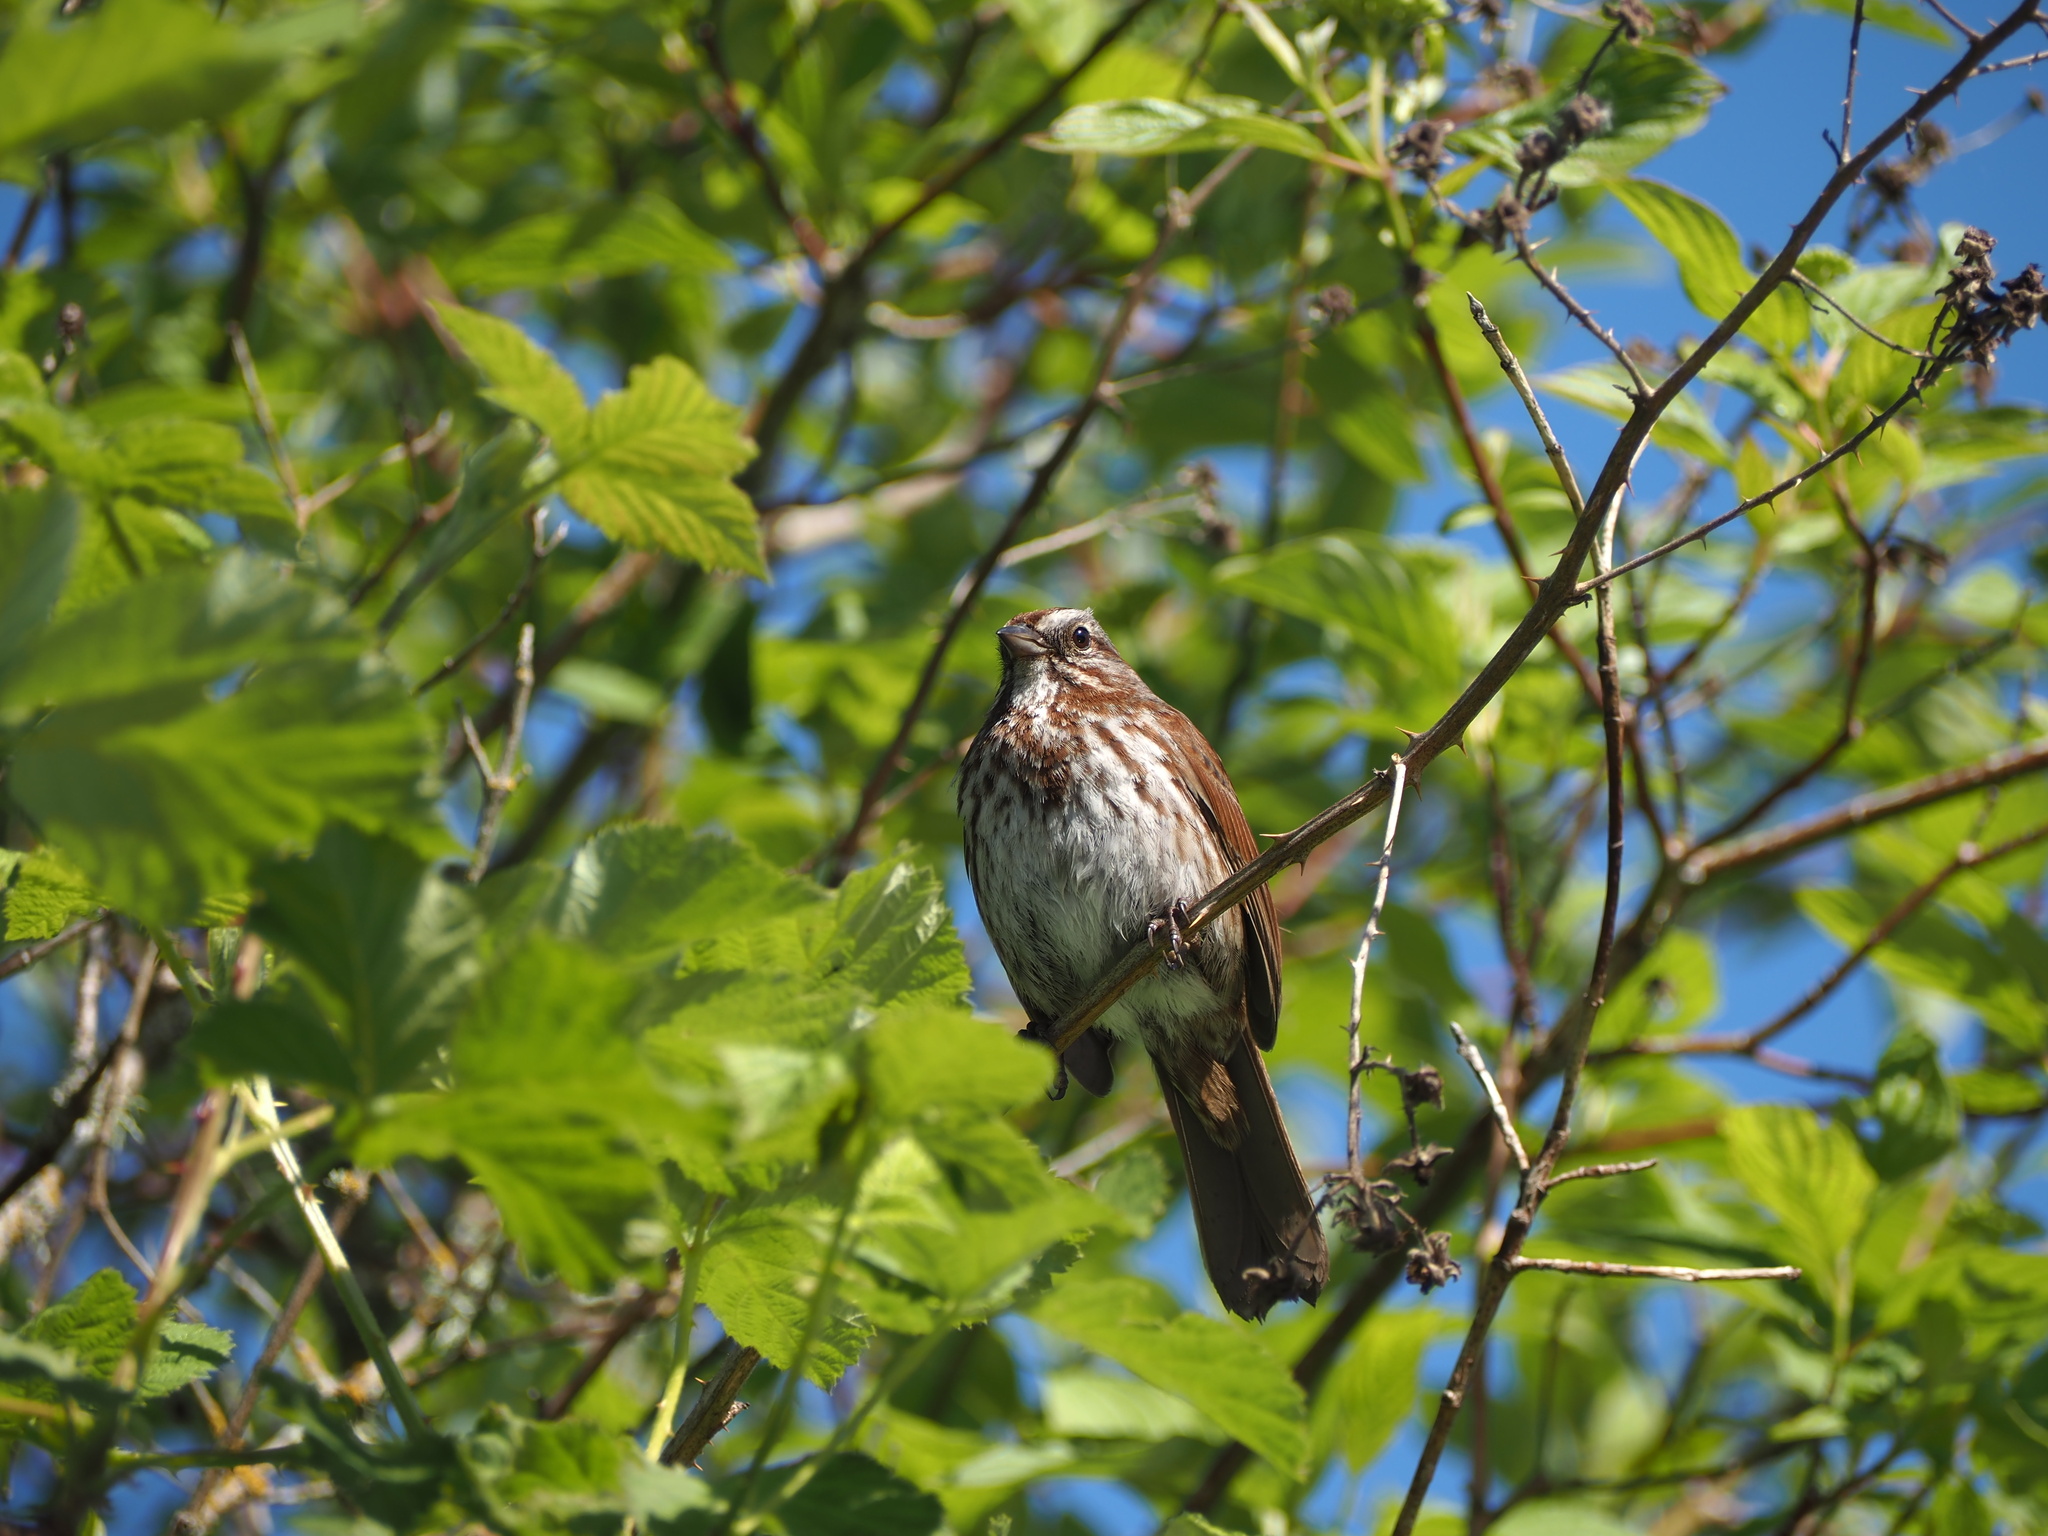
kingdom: Animalia
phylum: Chordata
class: Aves
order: Passeriformes
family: Passerellidae
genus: Melospiza
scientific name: Melospiza melodia
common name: Song sparrow
